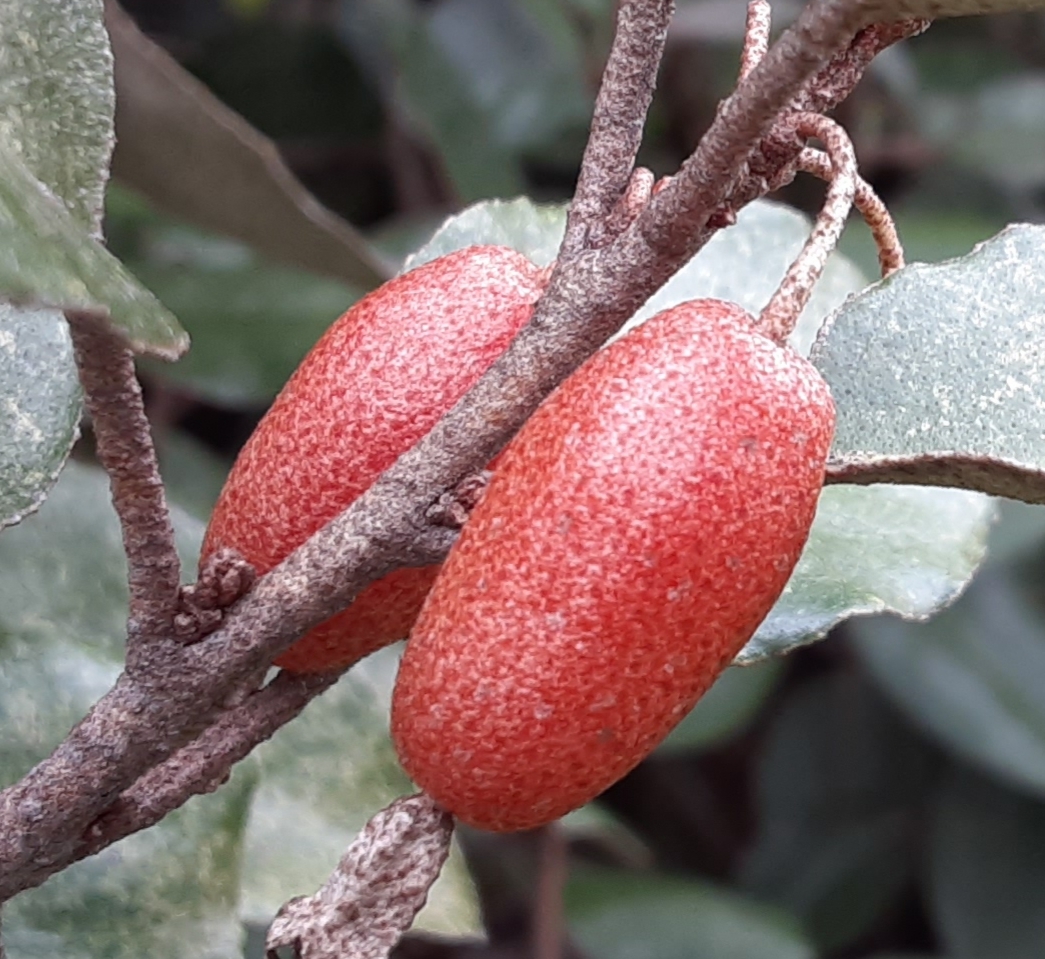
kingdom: Plantae
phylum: Tracheophyta
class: Magnoliopsida
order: Rosales
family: Elaeagnaceae
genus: Elaeagnus
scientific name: Elaeagnus pungens
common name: Spiny oleaster
